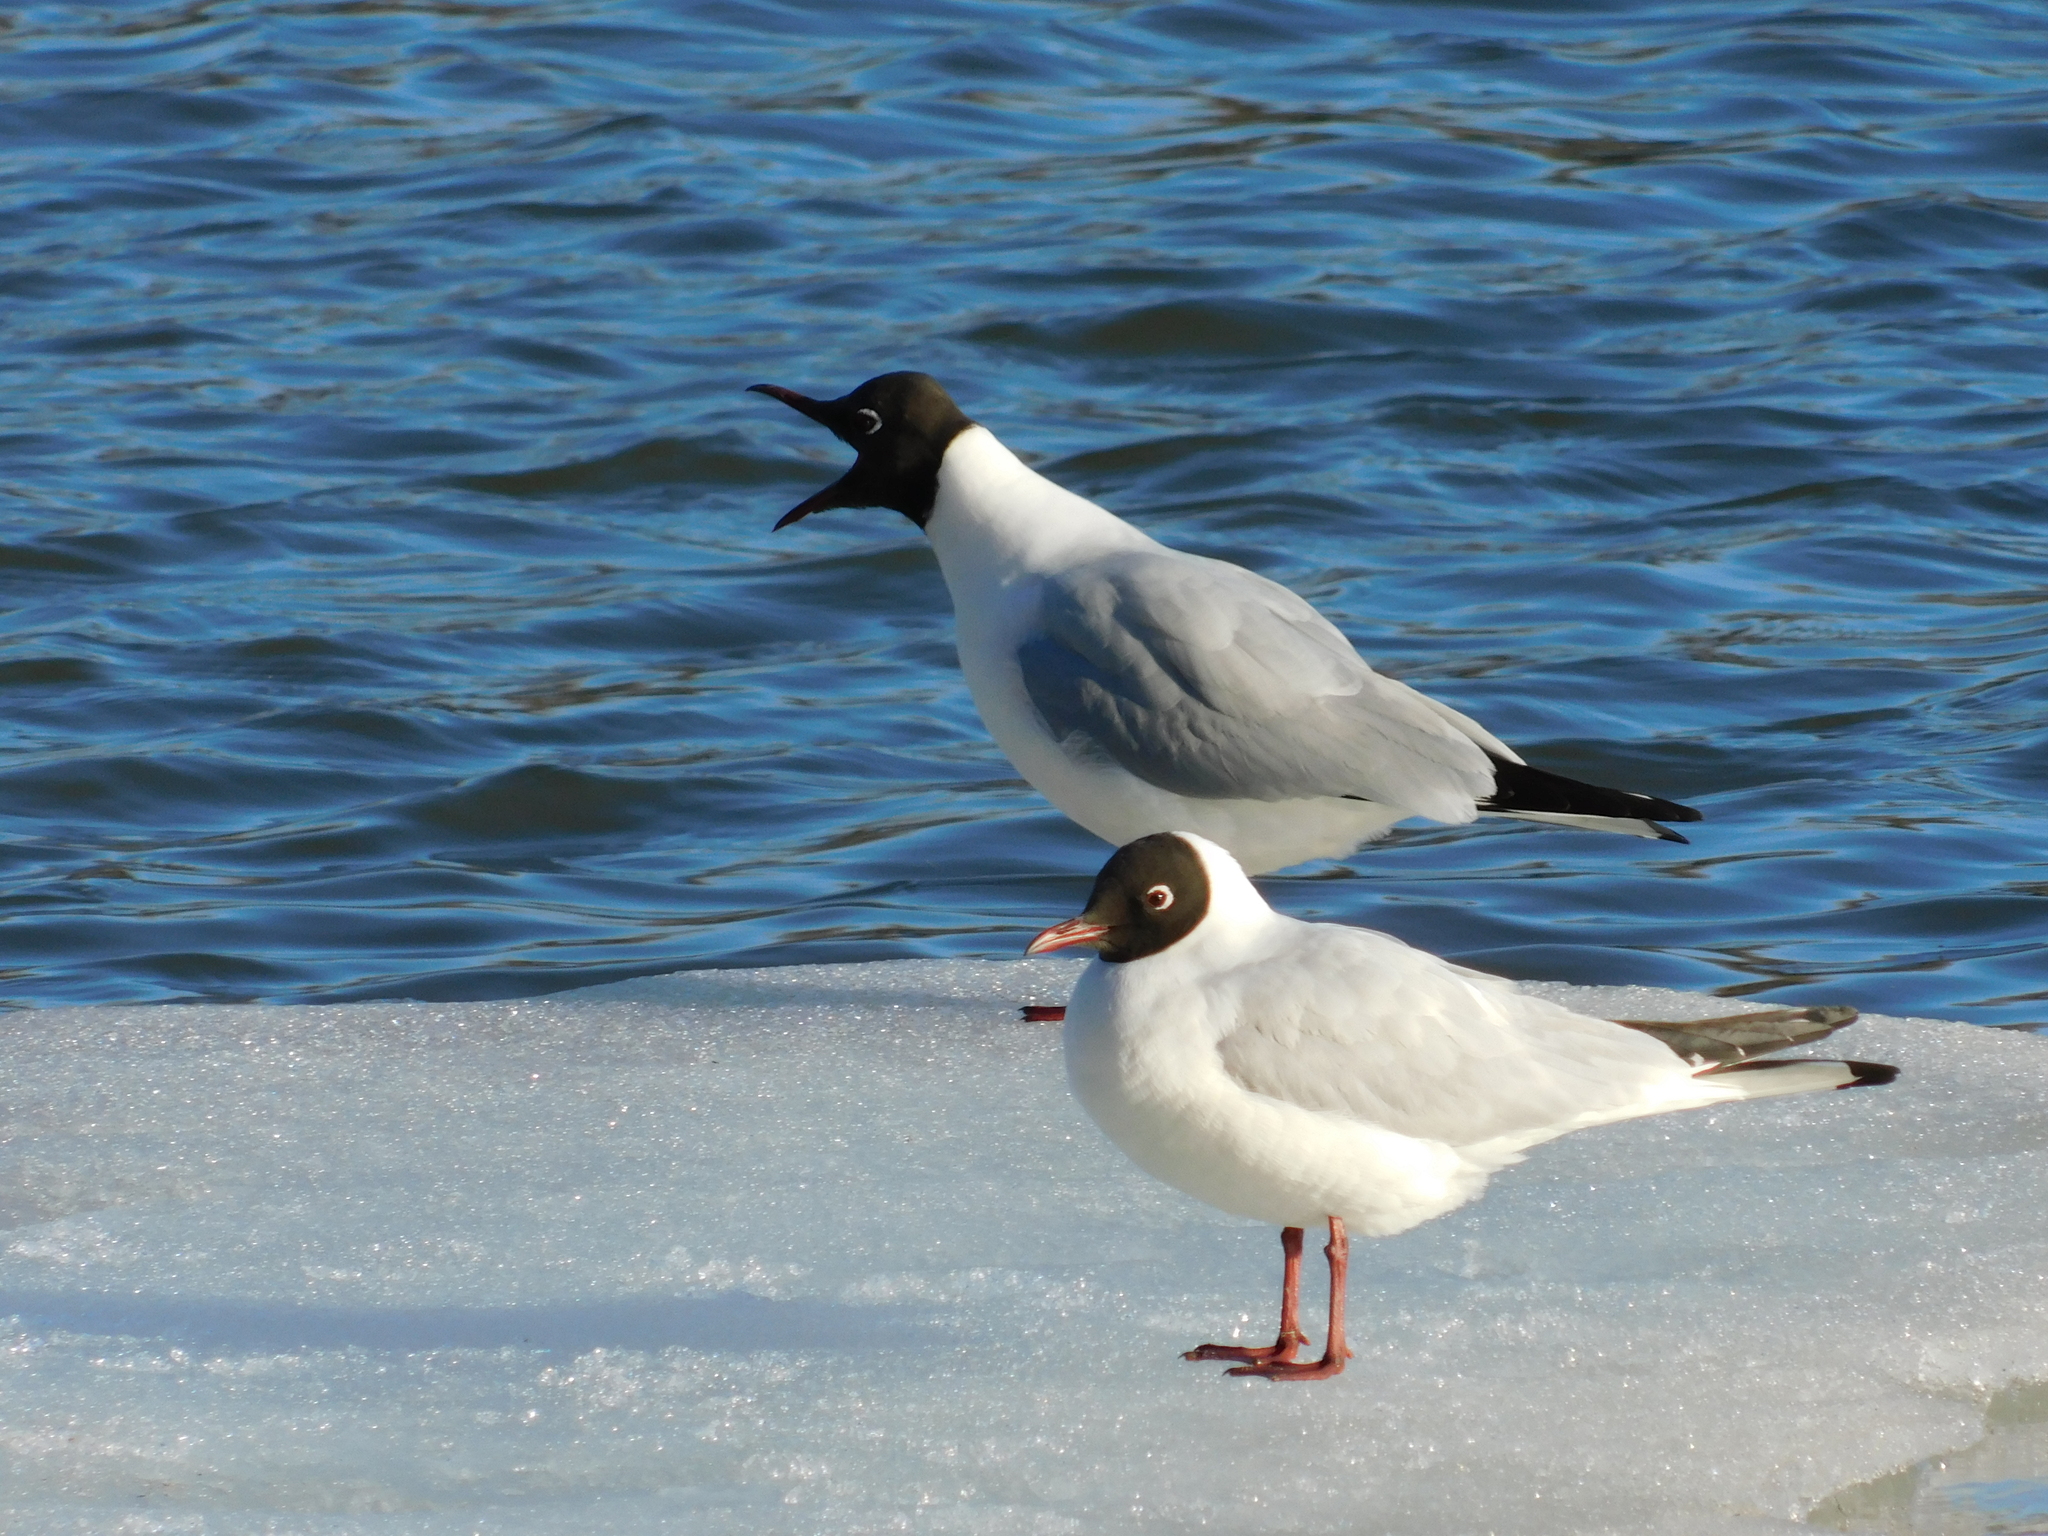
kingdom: Animalia
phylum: Chordata
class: Aves
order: Charadriiformes
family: Laridae
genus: Chroicocephalus
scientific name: Chroicocephalus ridibundus
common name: Black-headed gull
